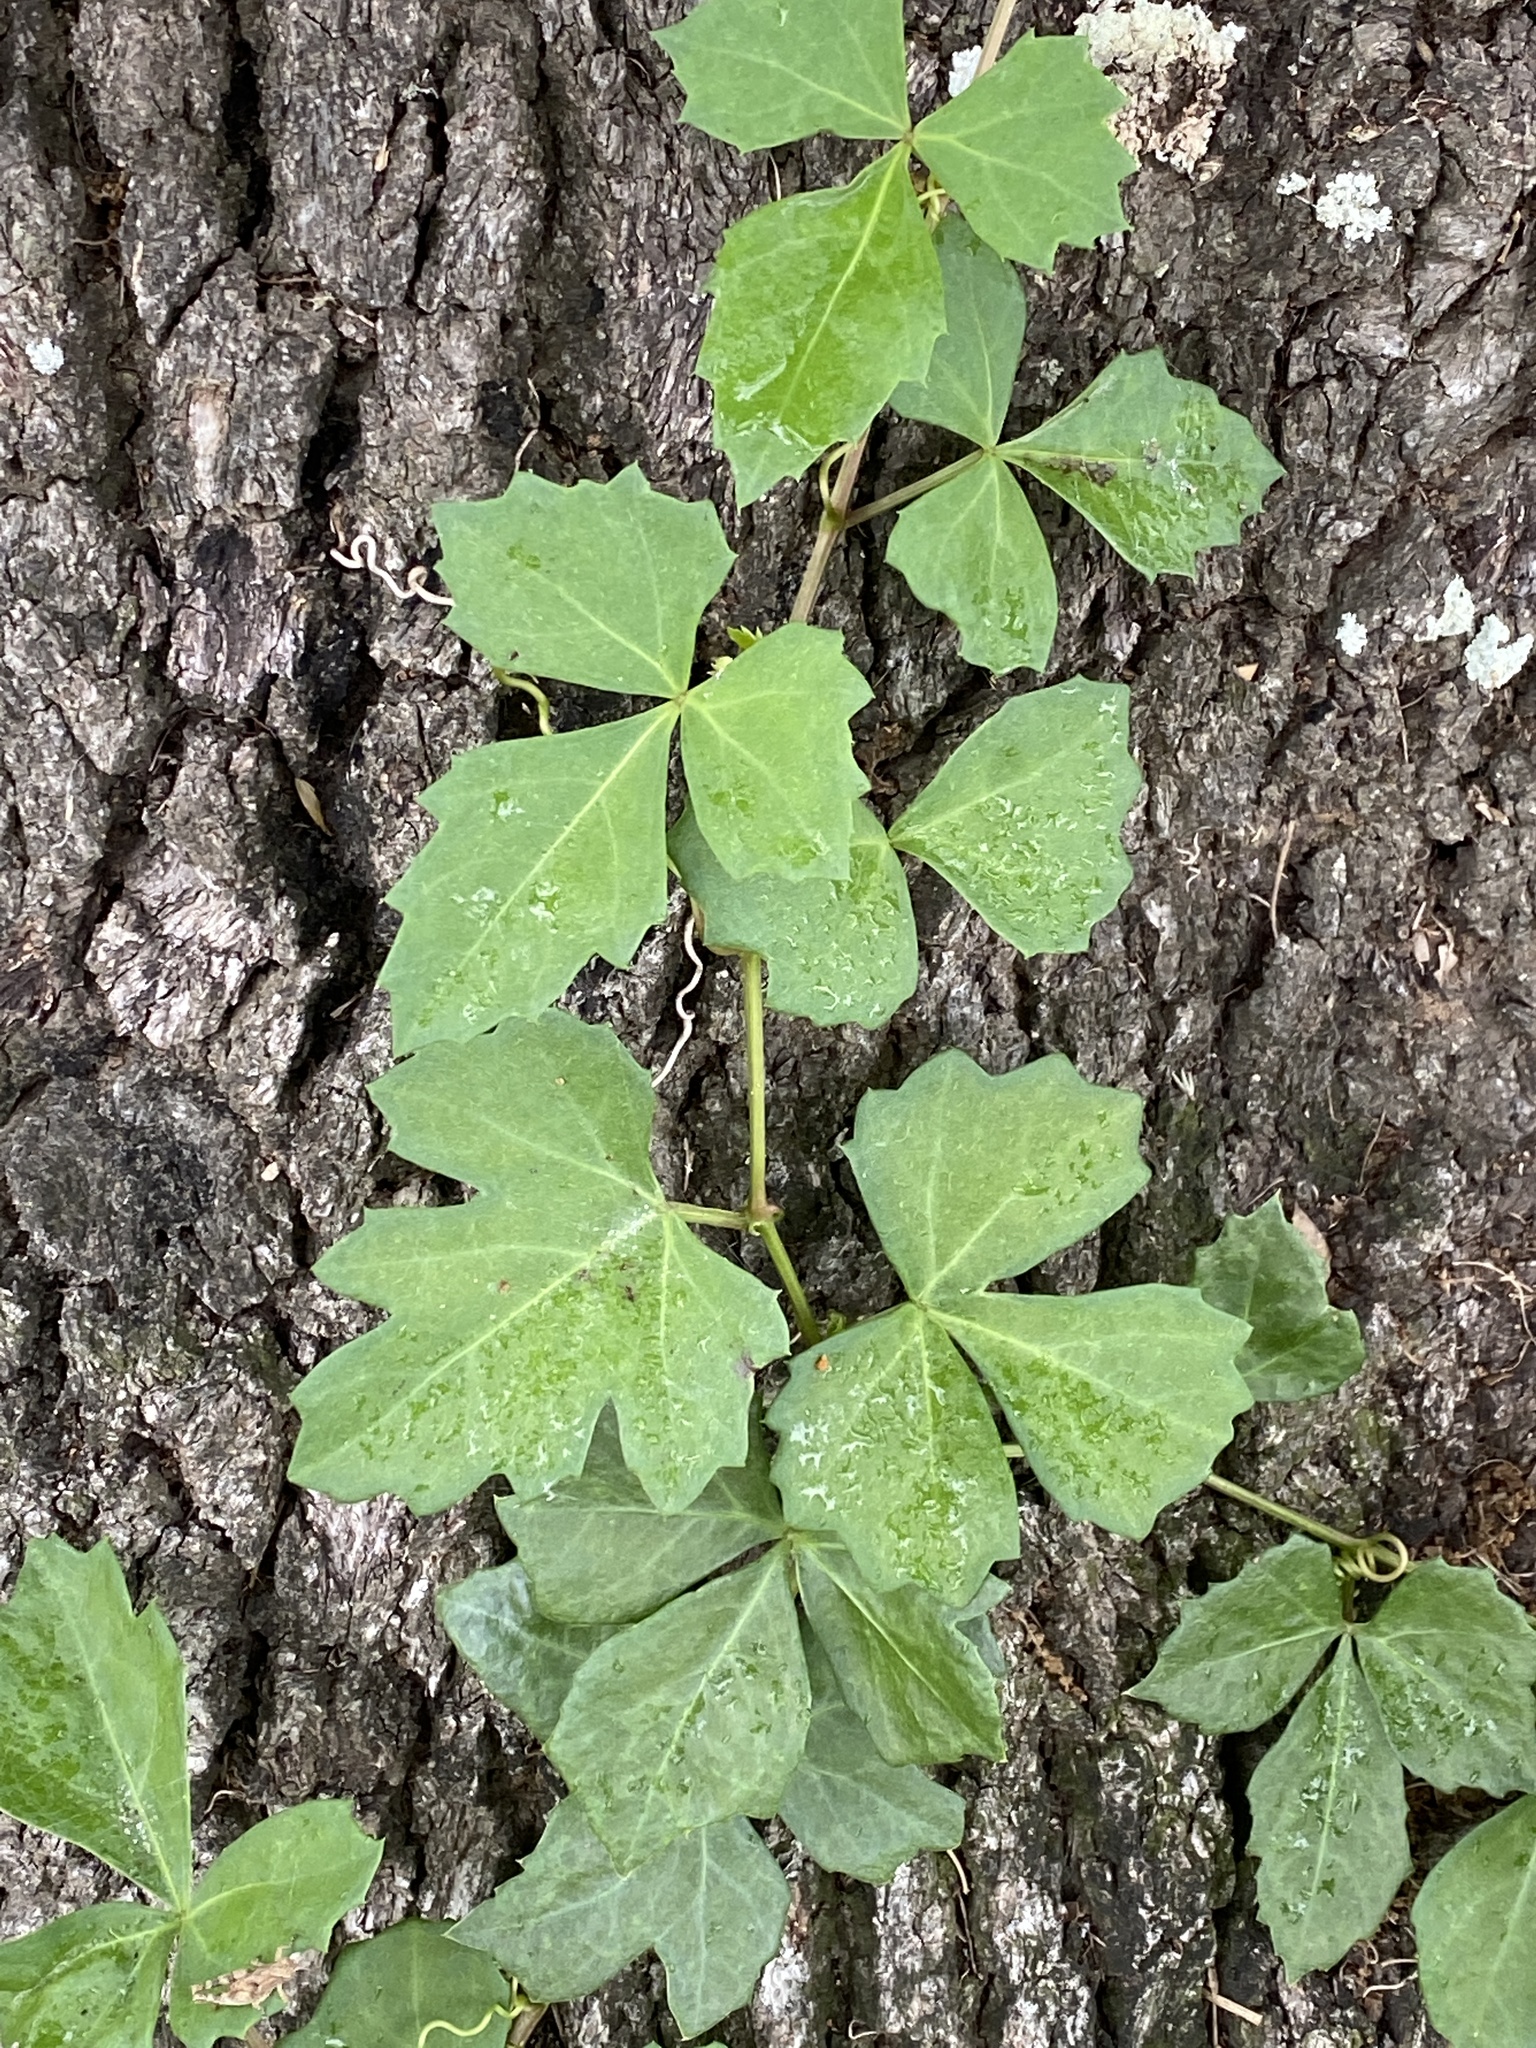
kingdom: Plantae
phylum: Tracheophyta
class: Magnoliopsida
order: Vitales
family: Vitaceae
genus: Cissus
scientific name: Cissus trifoliata
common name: Vine-sorrel
